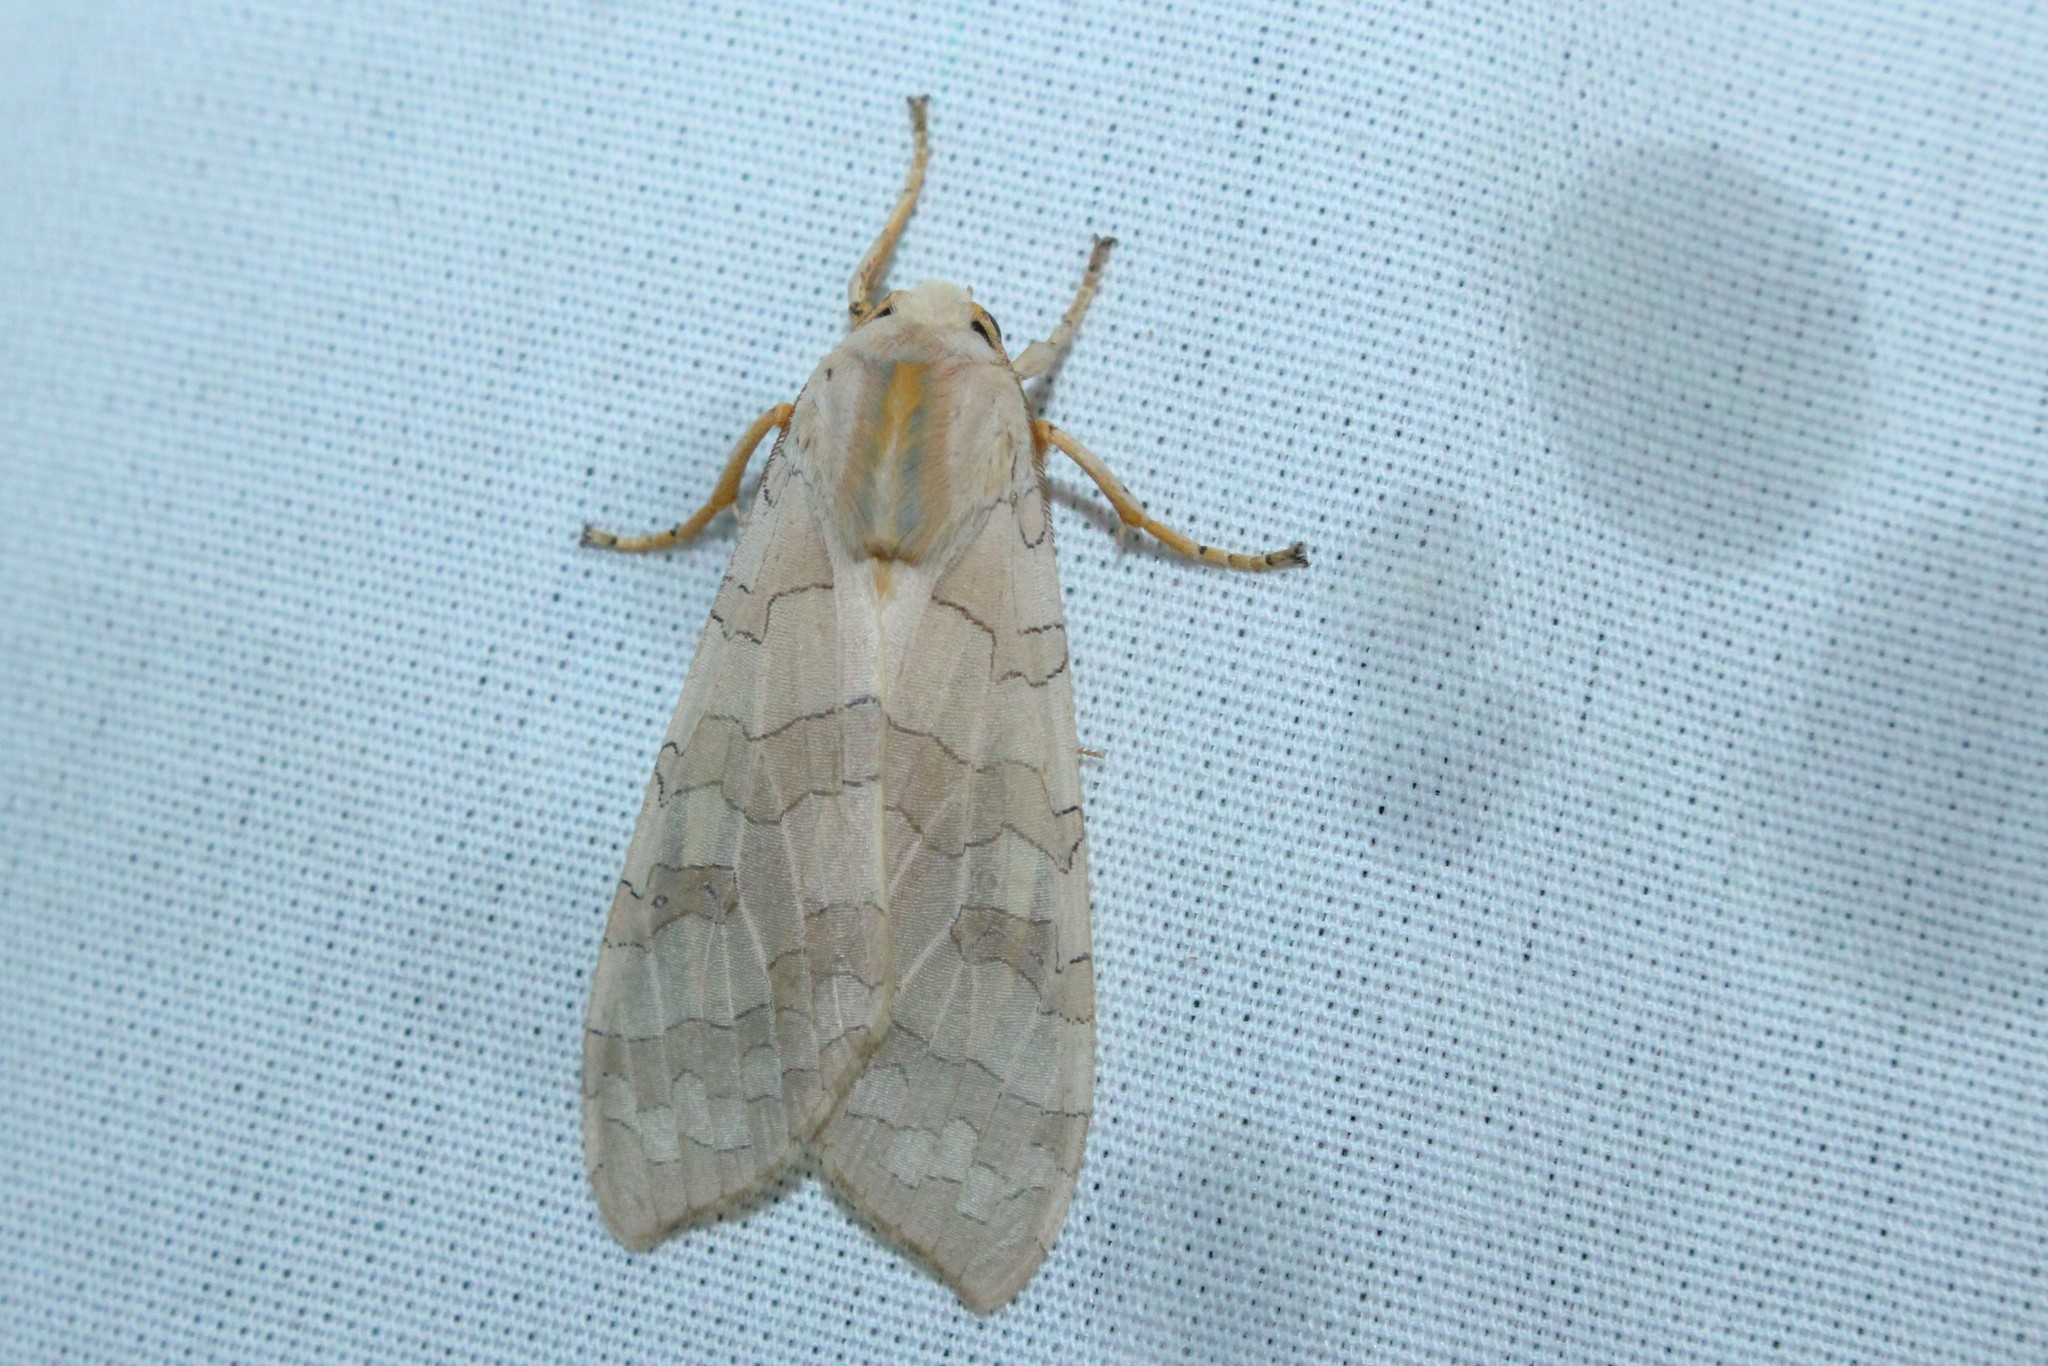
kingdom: Animalia
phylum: Arthropoda
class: Insecta
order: Lepidoptera
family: Erebidae
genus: Halysidota
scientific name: Halysidota tessellaris
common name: Banded tussock moth
